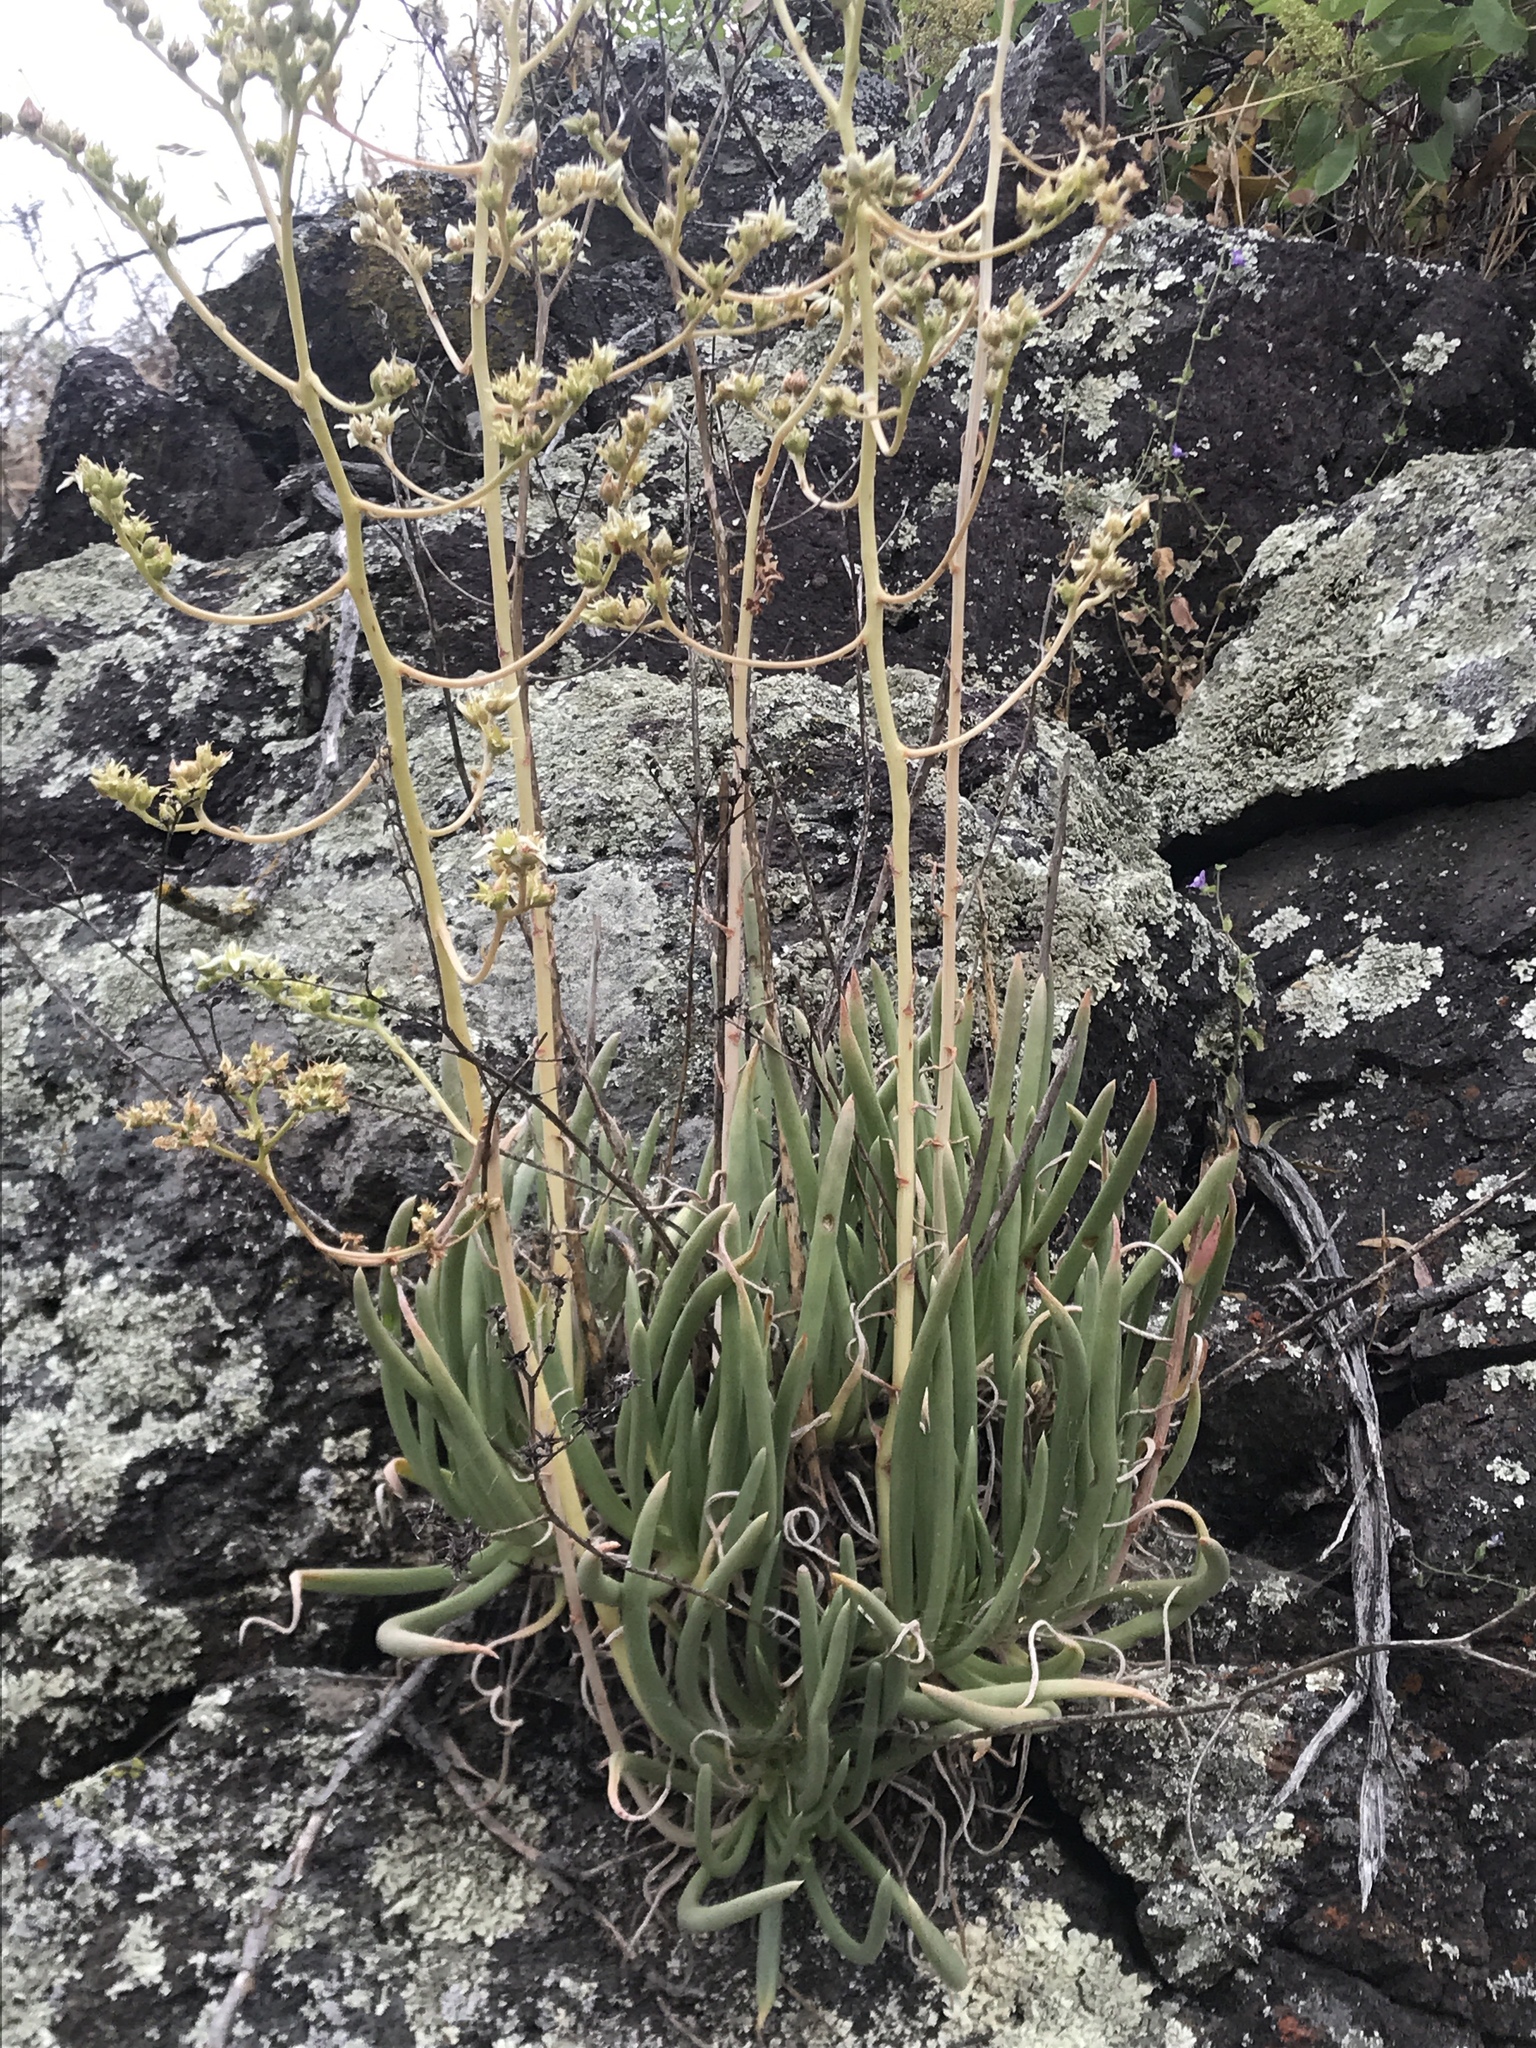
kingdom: Plantae
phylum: Tracheophyta
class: Magnoliopsida
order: Saxifragales
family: Crassulaceae
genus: Dudleya
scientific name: Dudleya edulis
